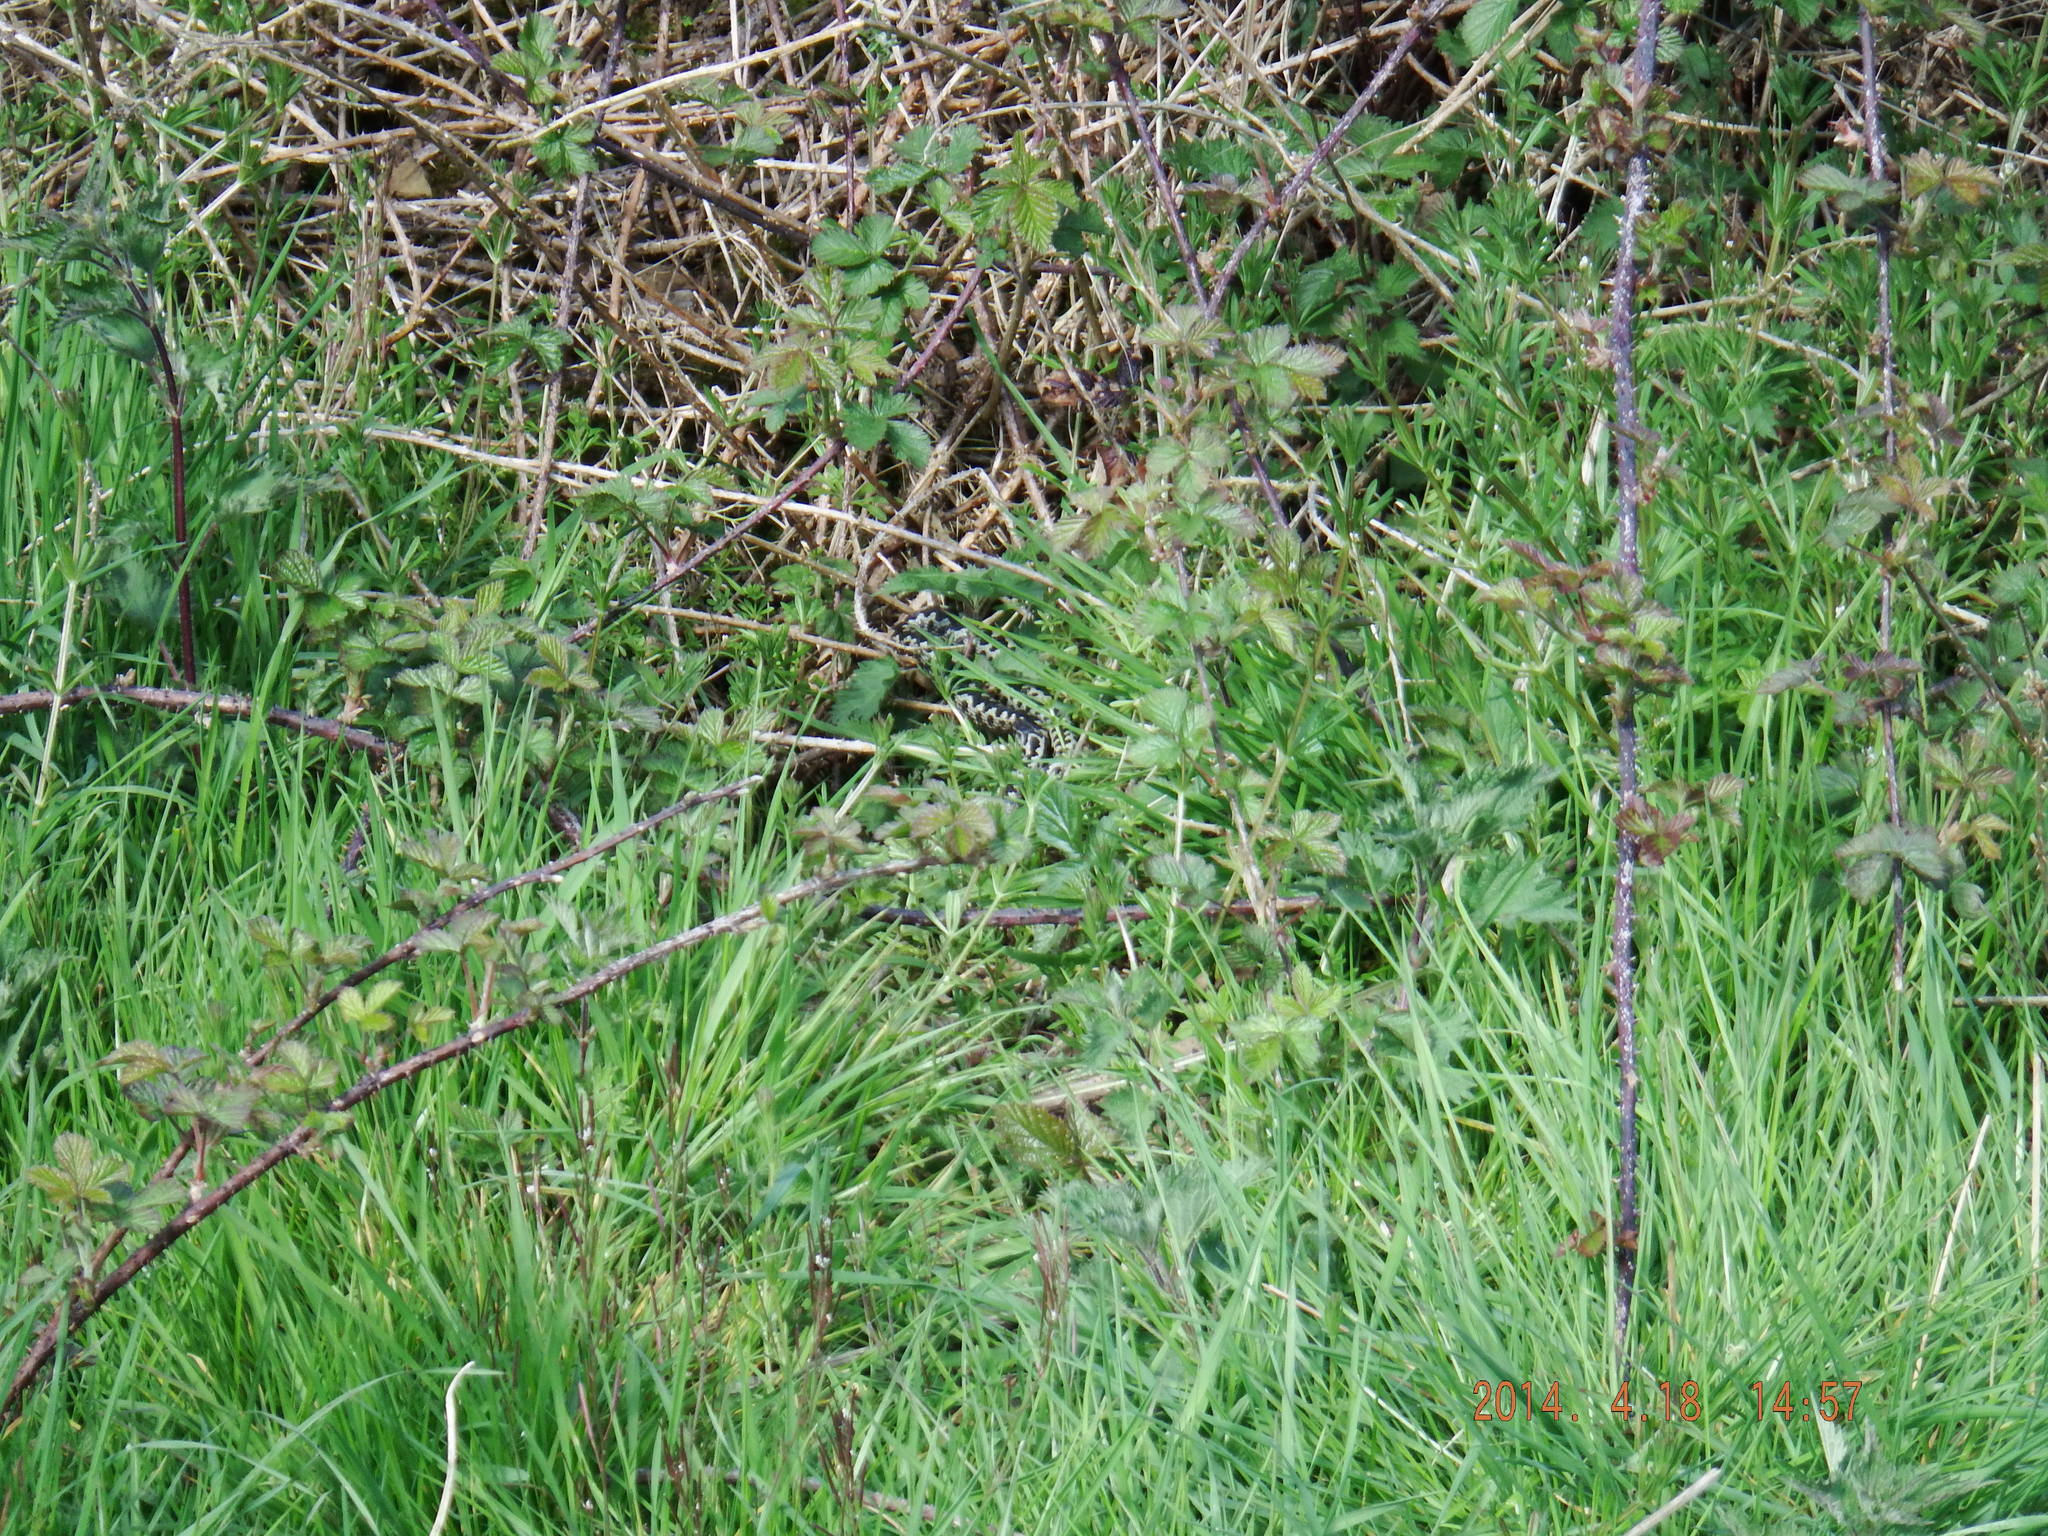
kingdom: Animalia
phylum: Chordata
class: Squamata
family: Viperidae
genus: Vipera
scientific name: Vipera berus
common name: Adder
